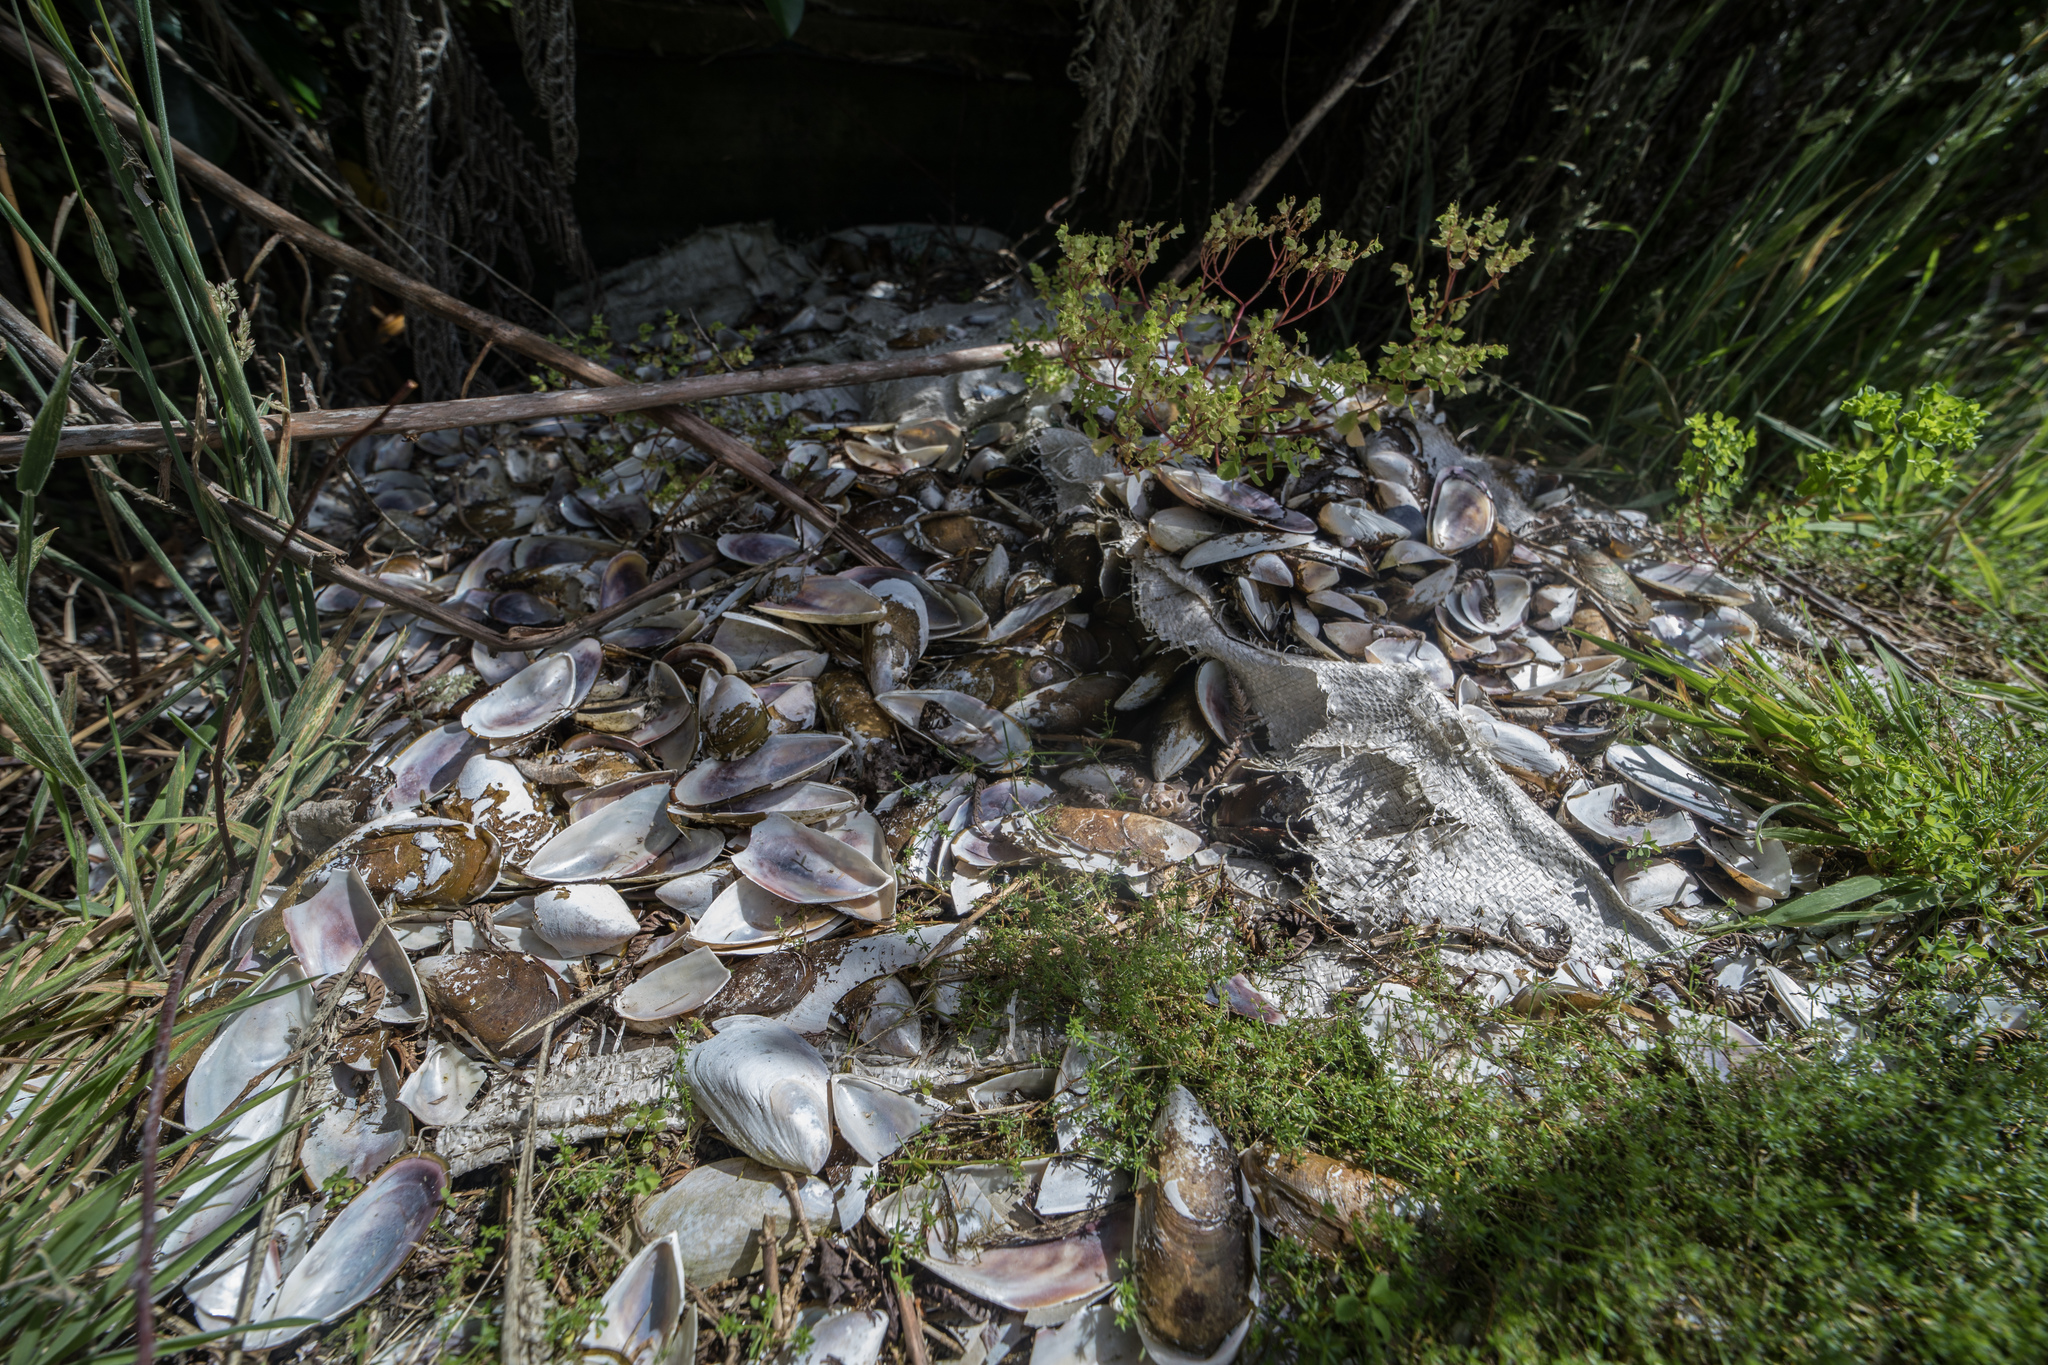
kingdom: Animalia
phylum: Mollusca
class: Bivalvia
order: Mytilida
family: Mytilidae
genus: Perna
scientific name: Perna canaliculus
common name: New zealand greenshelltm
